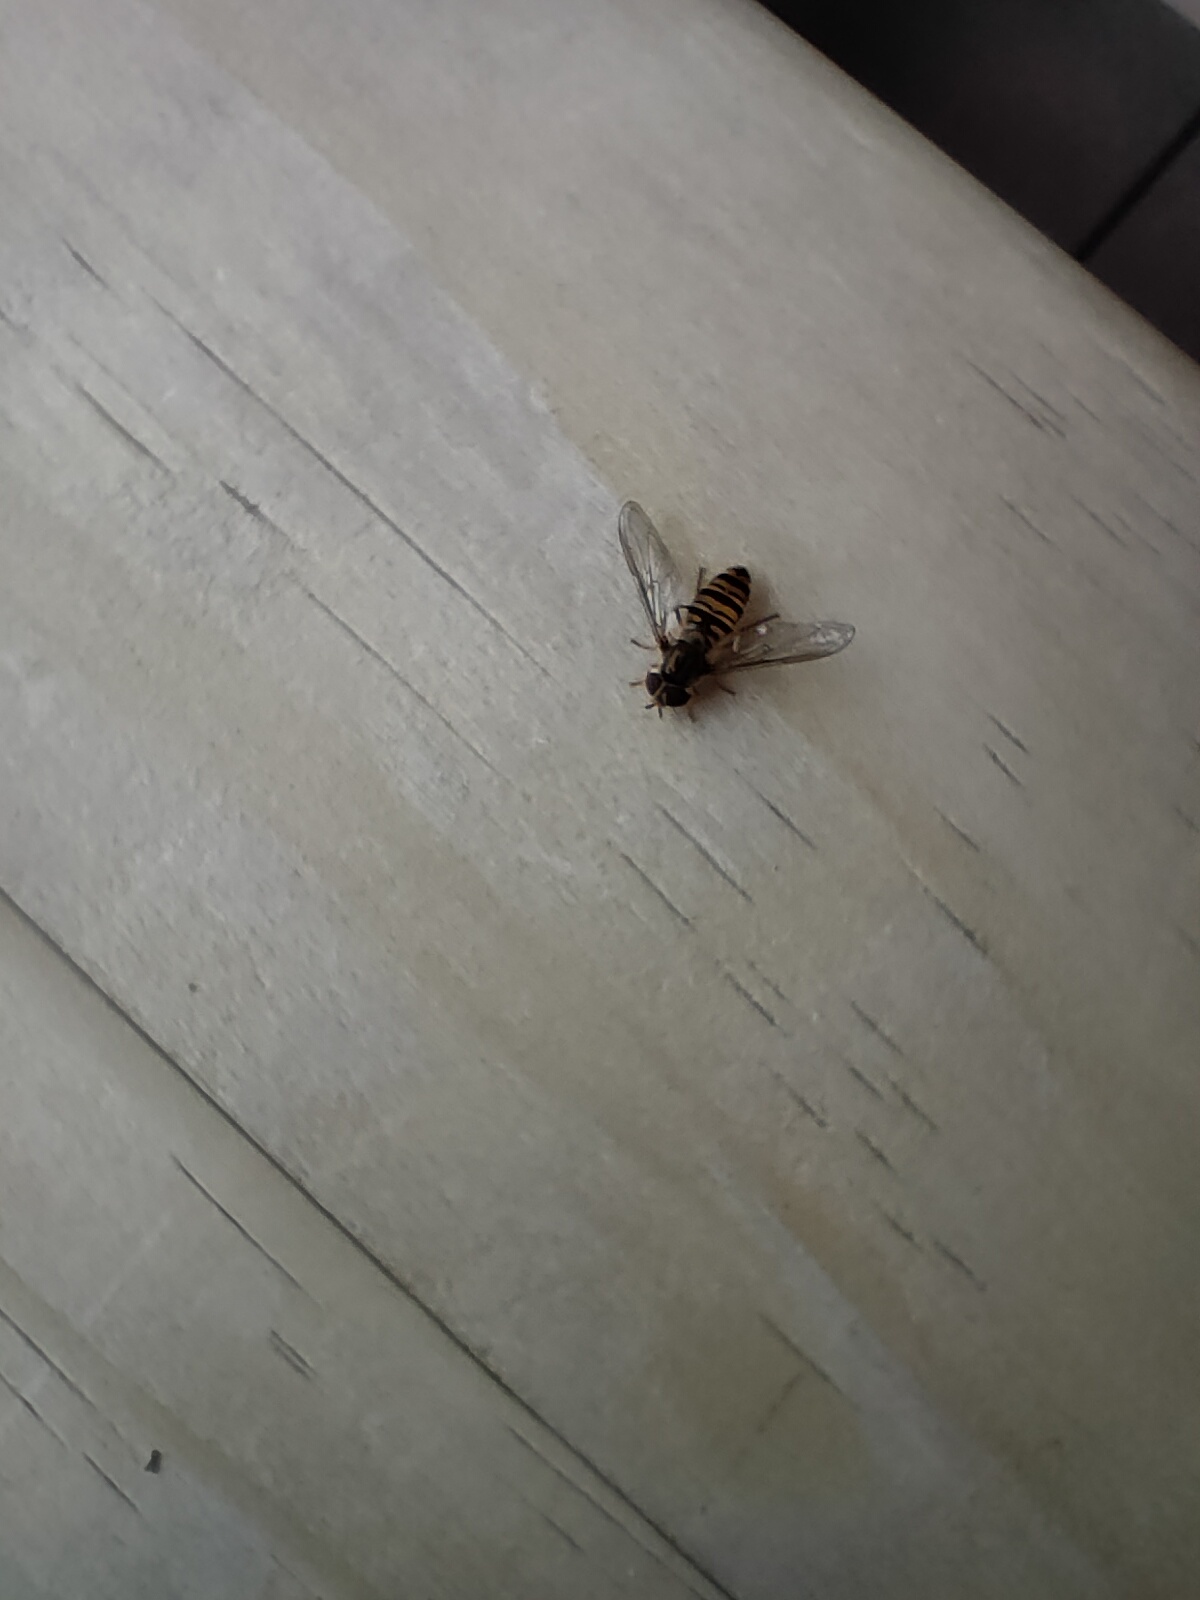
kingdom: Animalia
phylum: Arthropoda
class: Insecta
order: Diptera
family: Syrphidae
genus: Episyrphus
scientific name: Episyrphus balteatus
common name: Marmalade hoverfly
